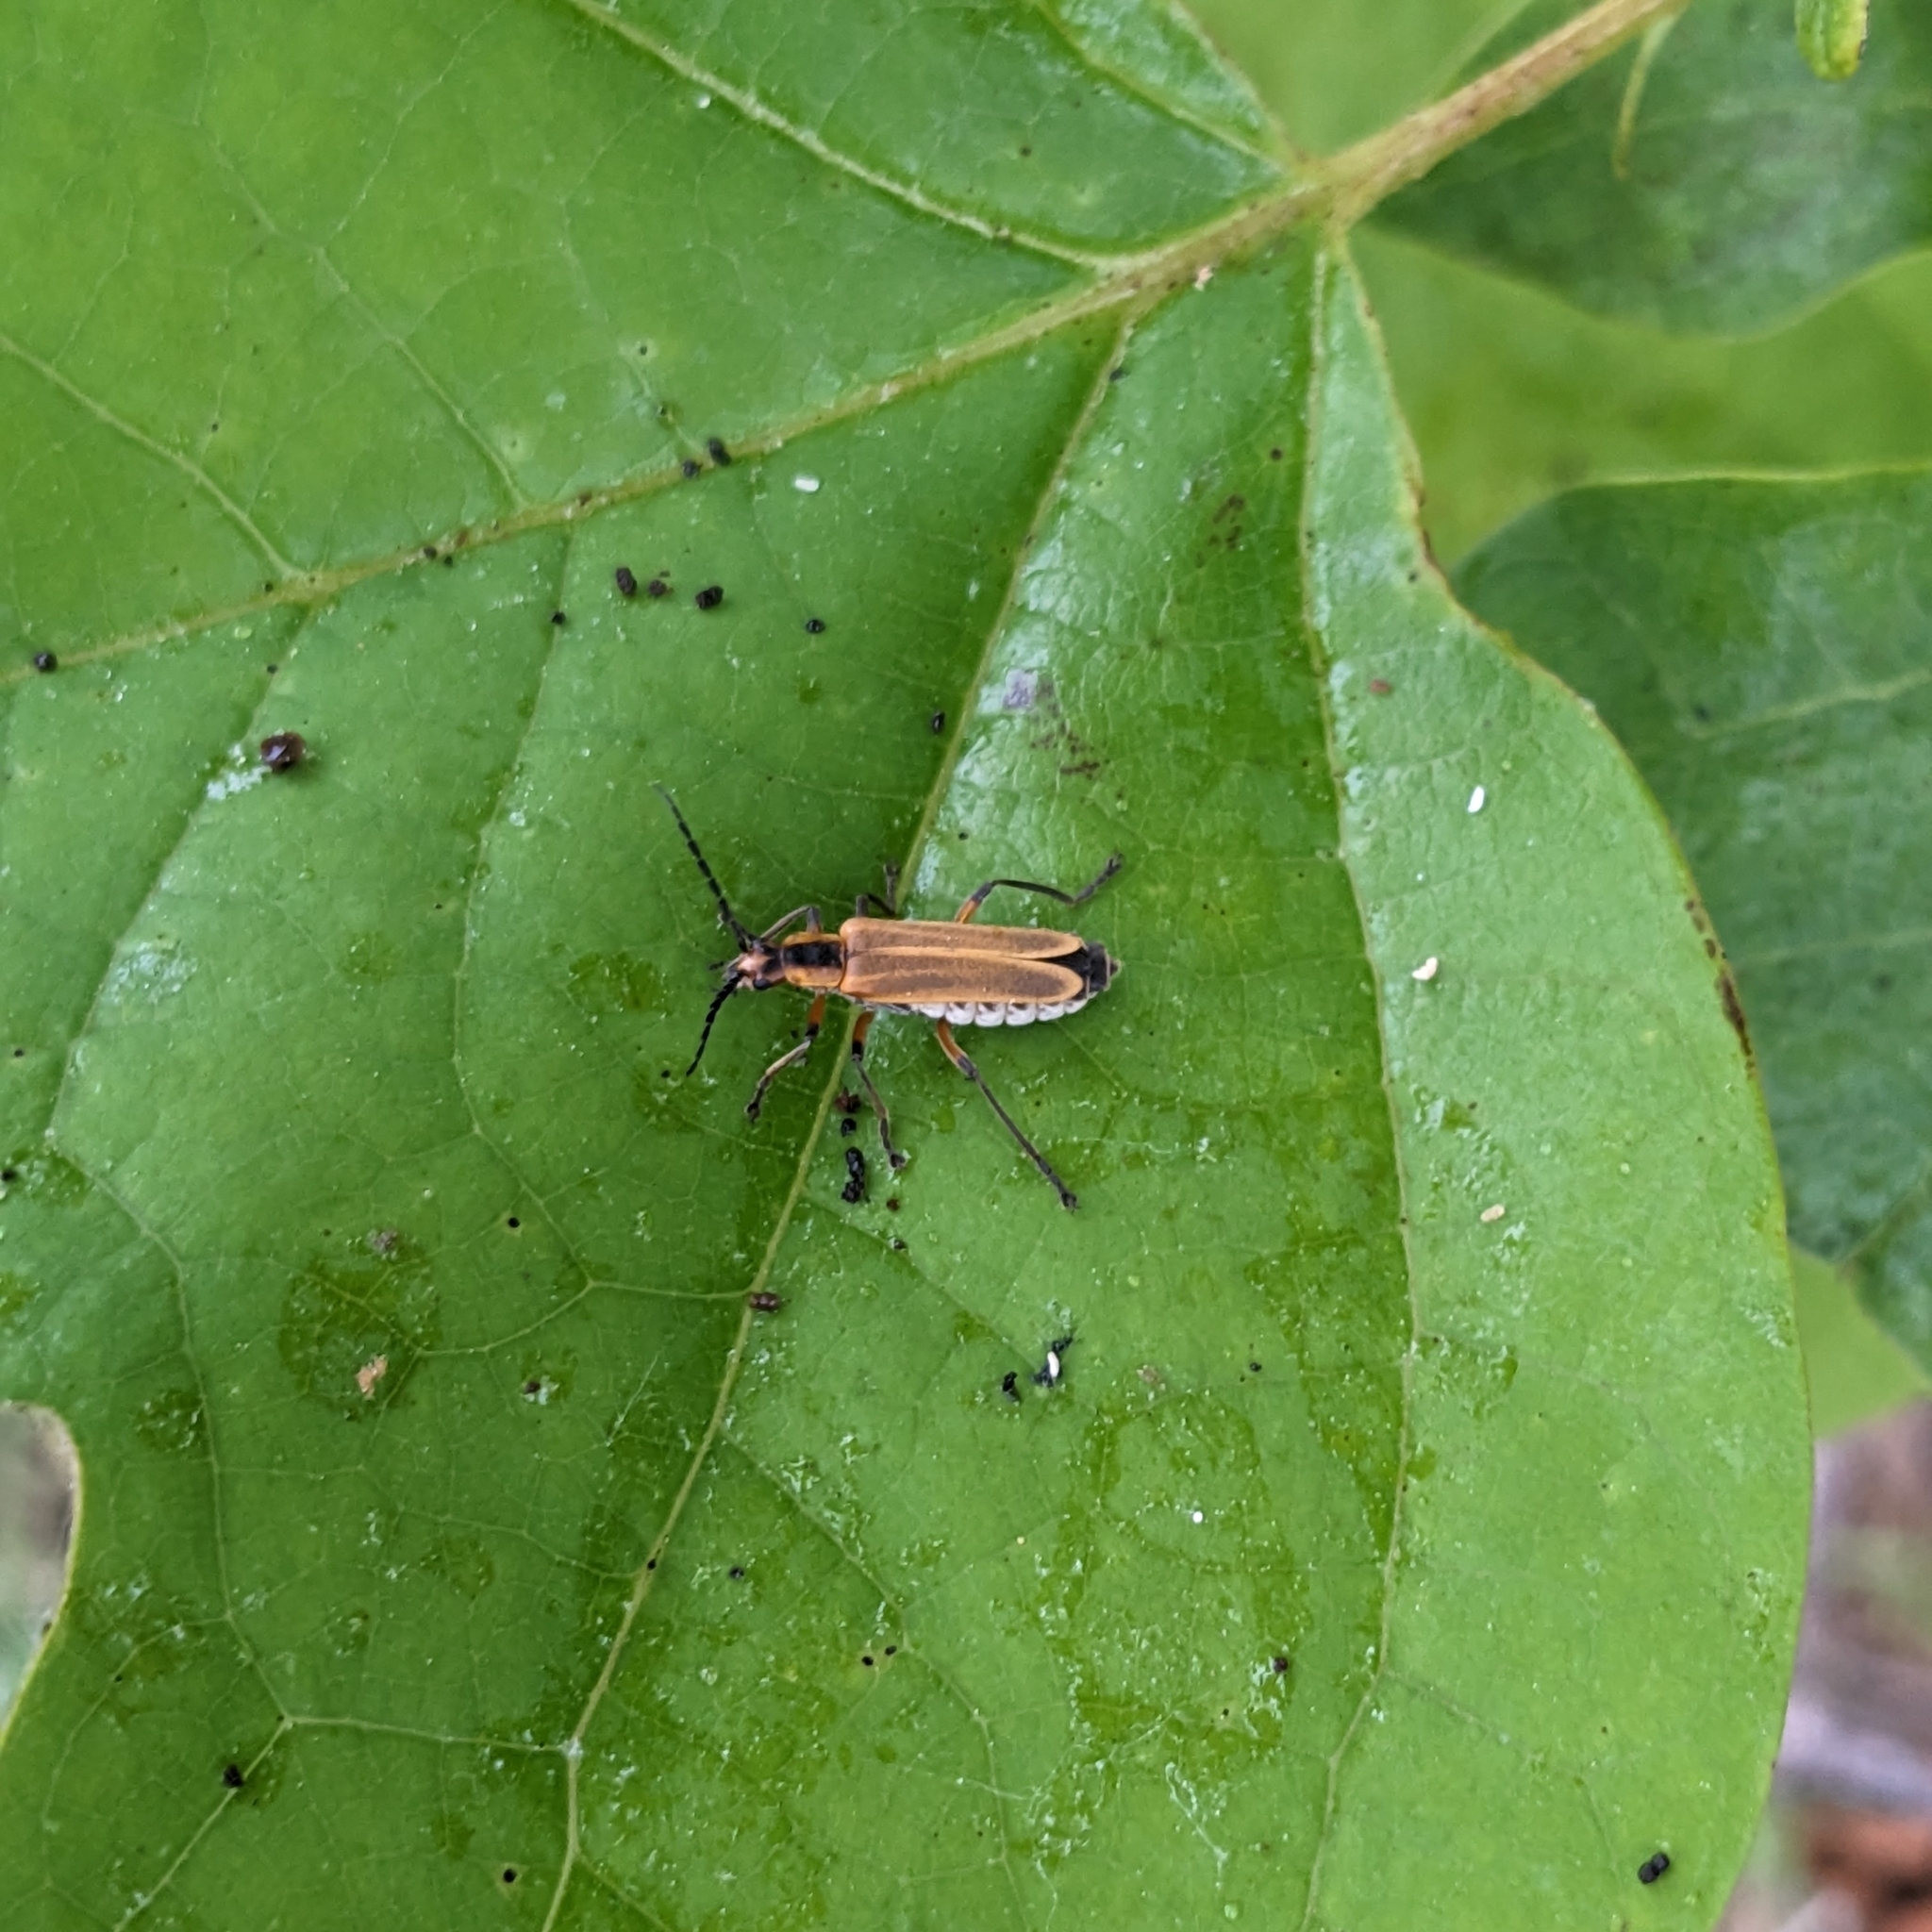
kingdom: Animalia
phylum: Arthropoda
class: Insecta
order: Coleoptera
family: Cantharidae
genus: Chauliognathus
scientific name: Chauliognathus marginatus
